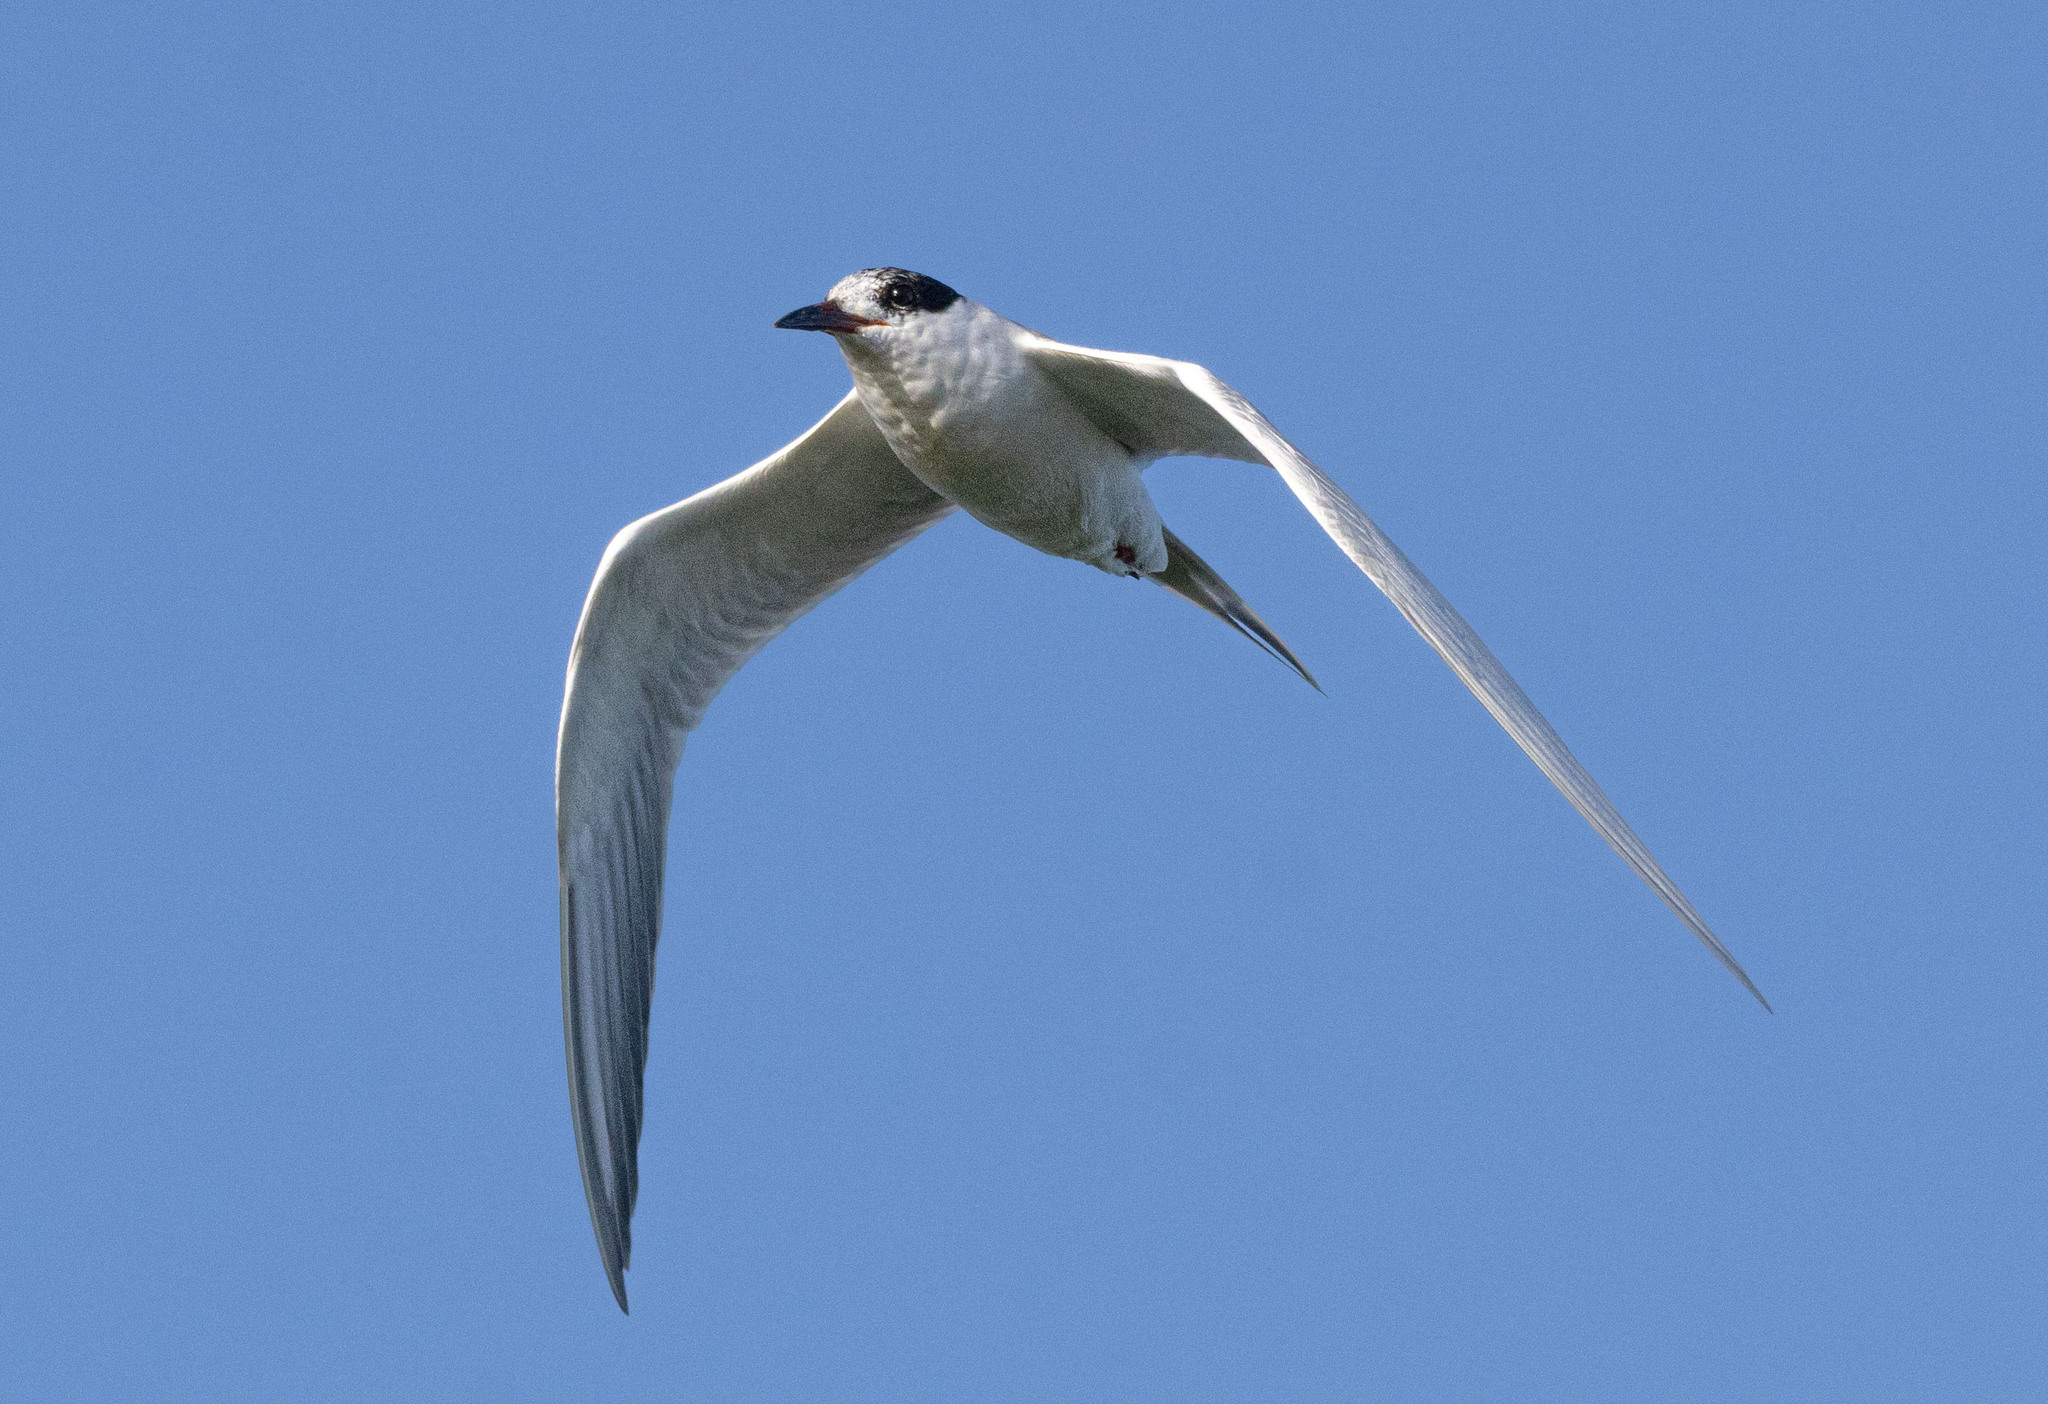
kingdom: Animalia
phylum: Chordata
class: Aves
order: Charadriiformes
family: Laridae
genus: Sterna
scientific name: Sterna forsteri
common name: Forster's tern
